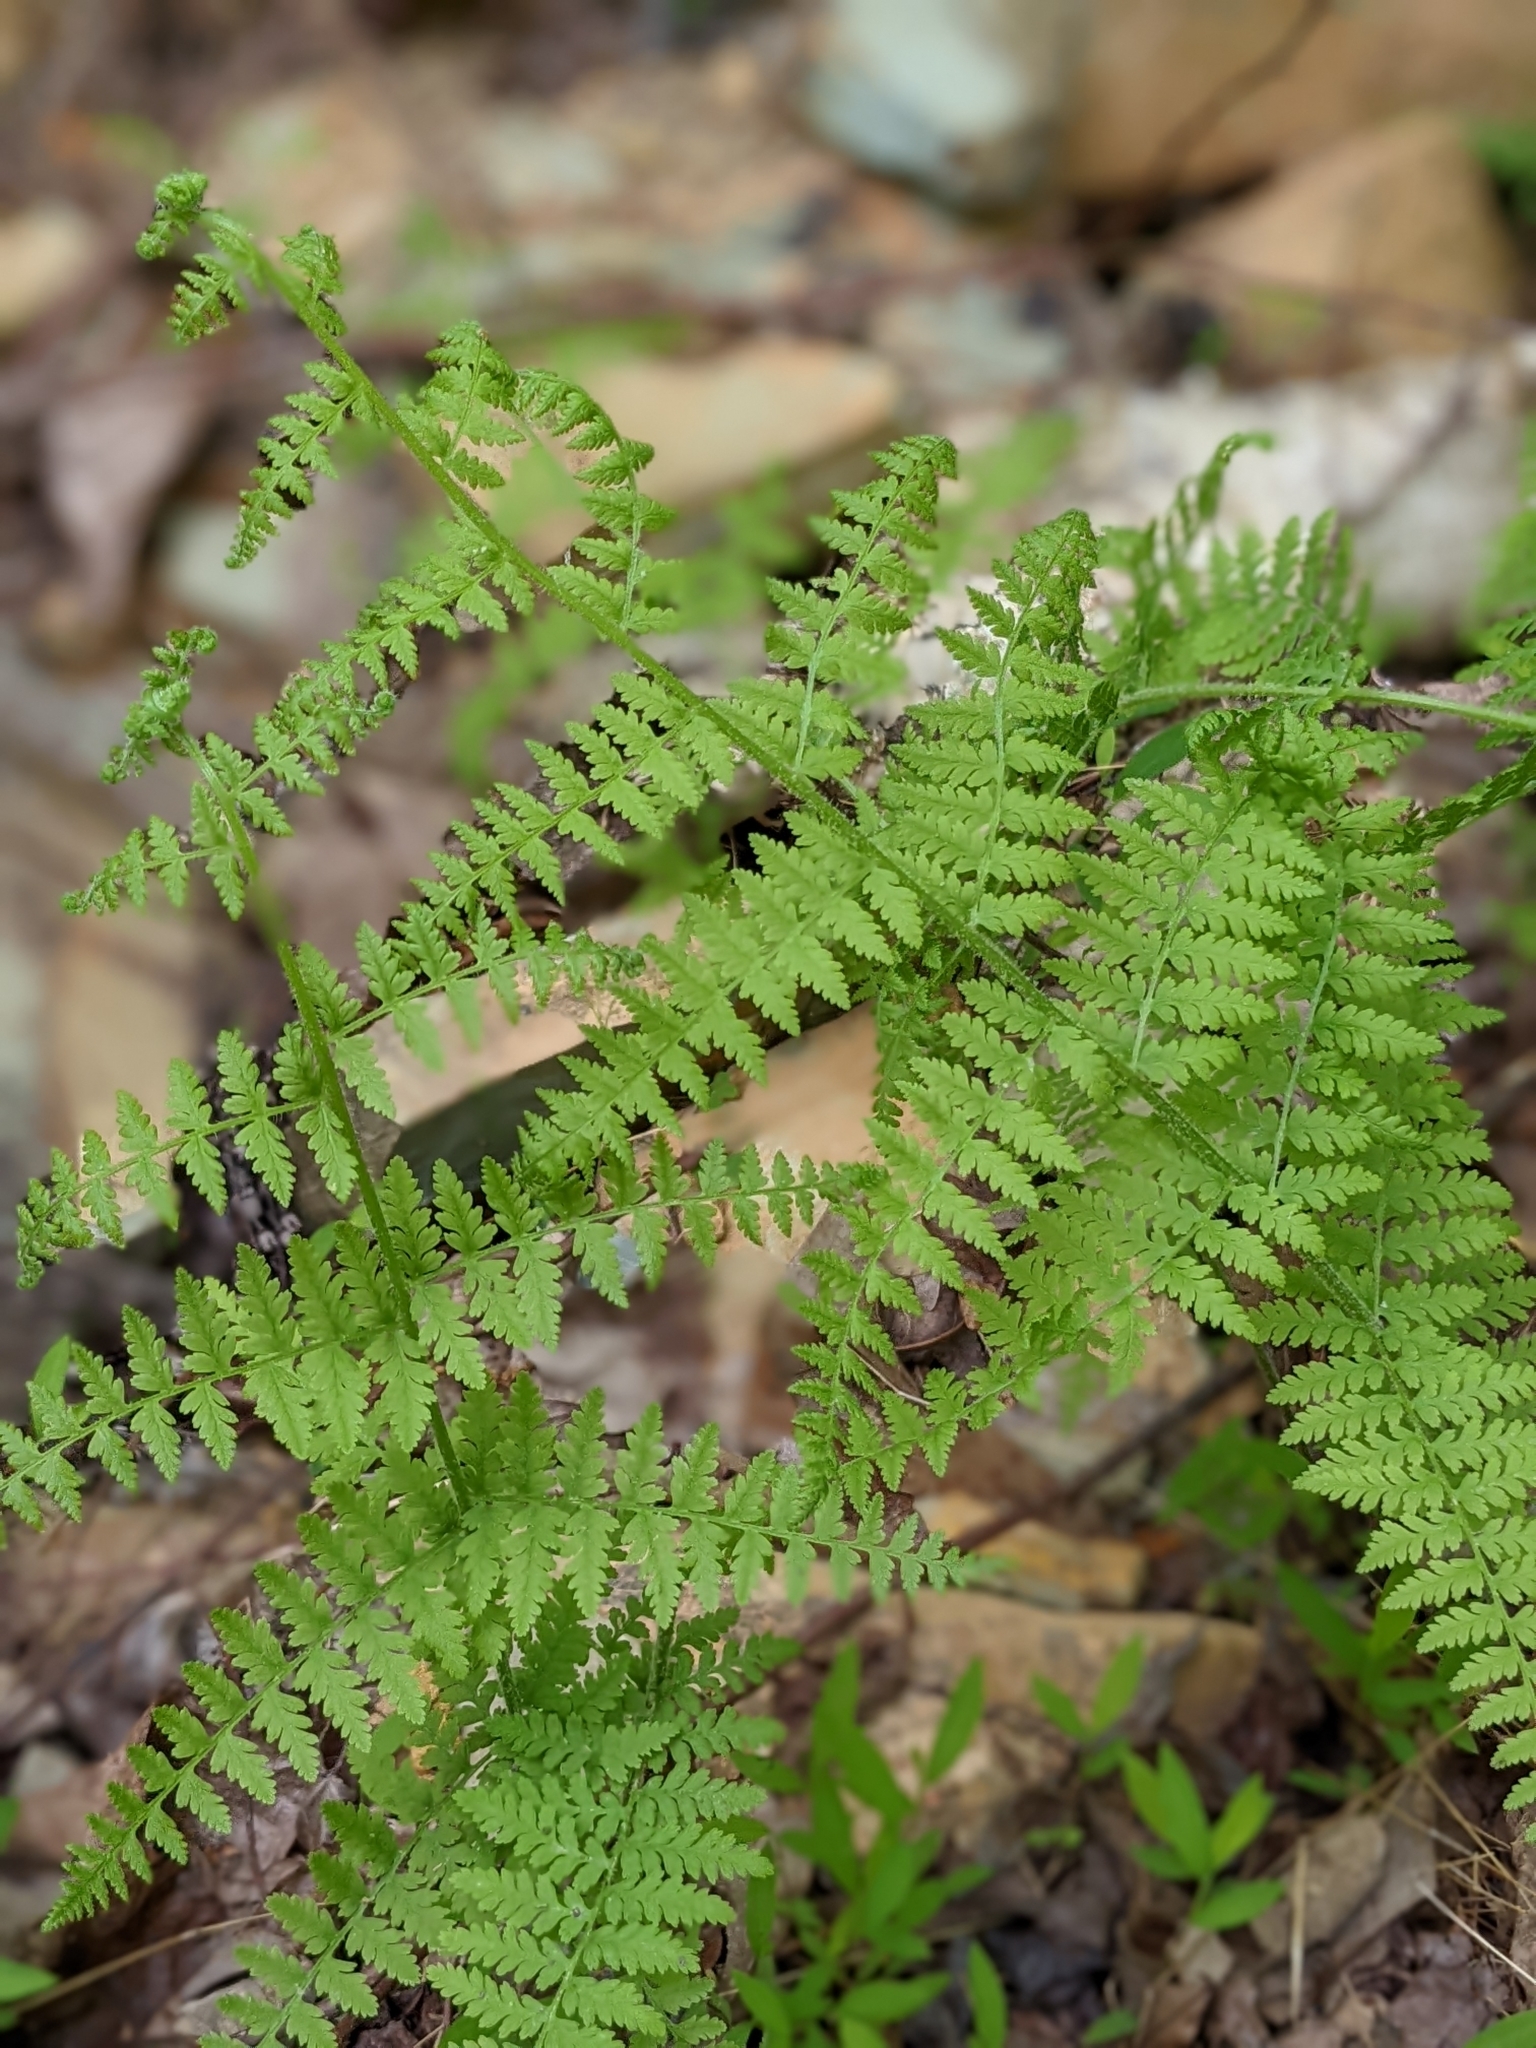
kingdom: Plantae
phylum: Tracheophyta
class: Polypodiopsida
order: Polypodiales
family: Dennstaedtiaceae
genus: Sitobolium
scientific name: Sitobolium punctilobum
